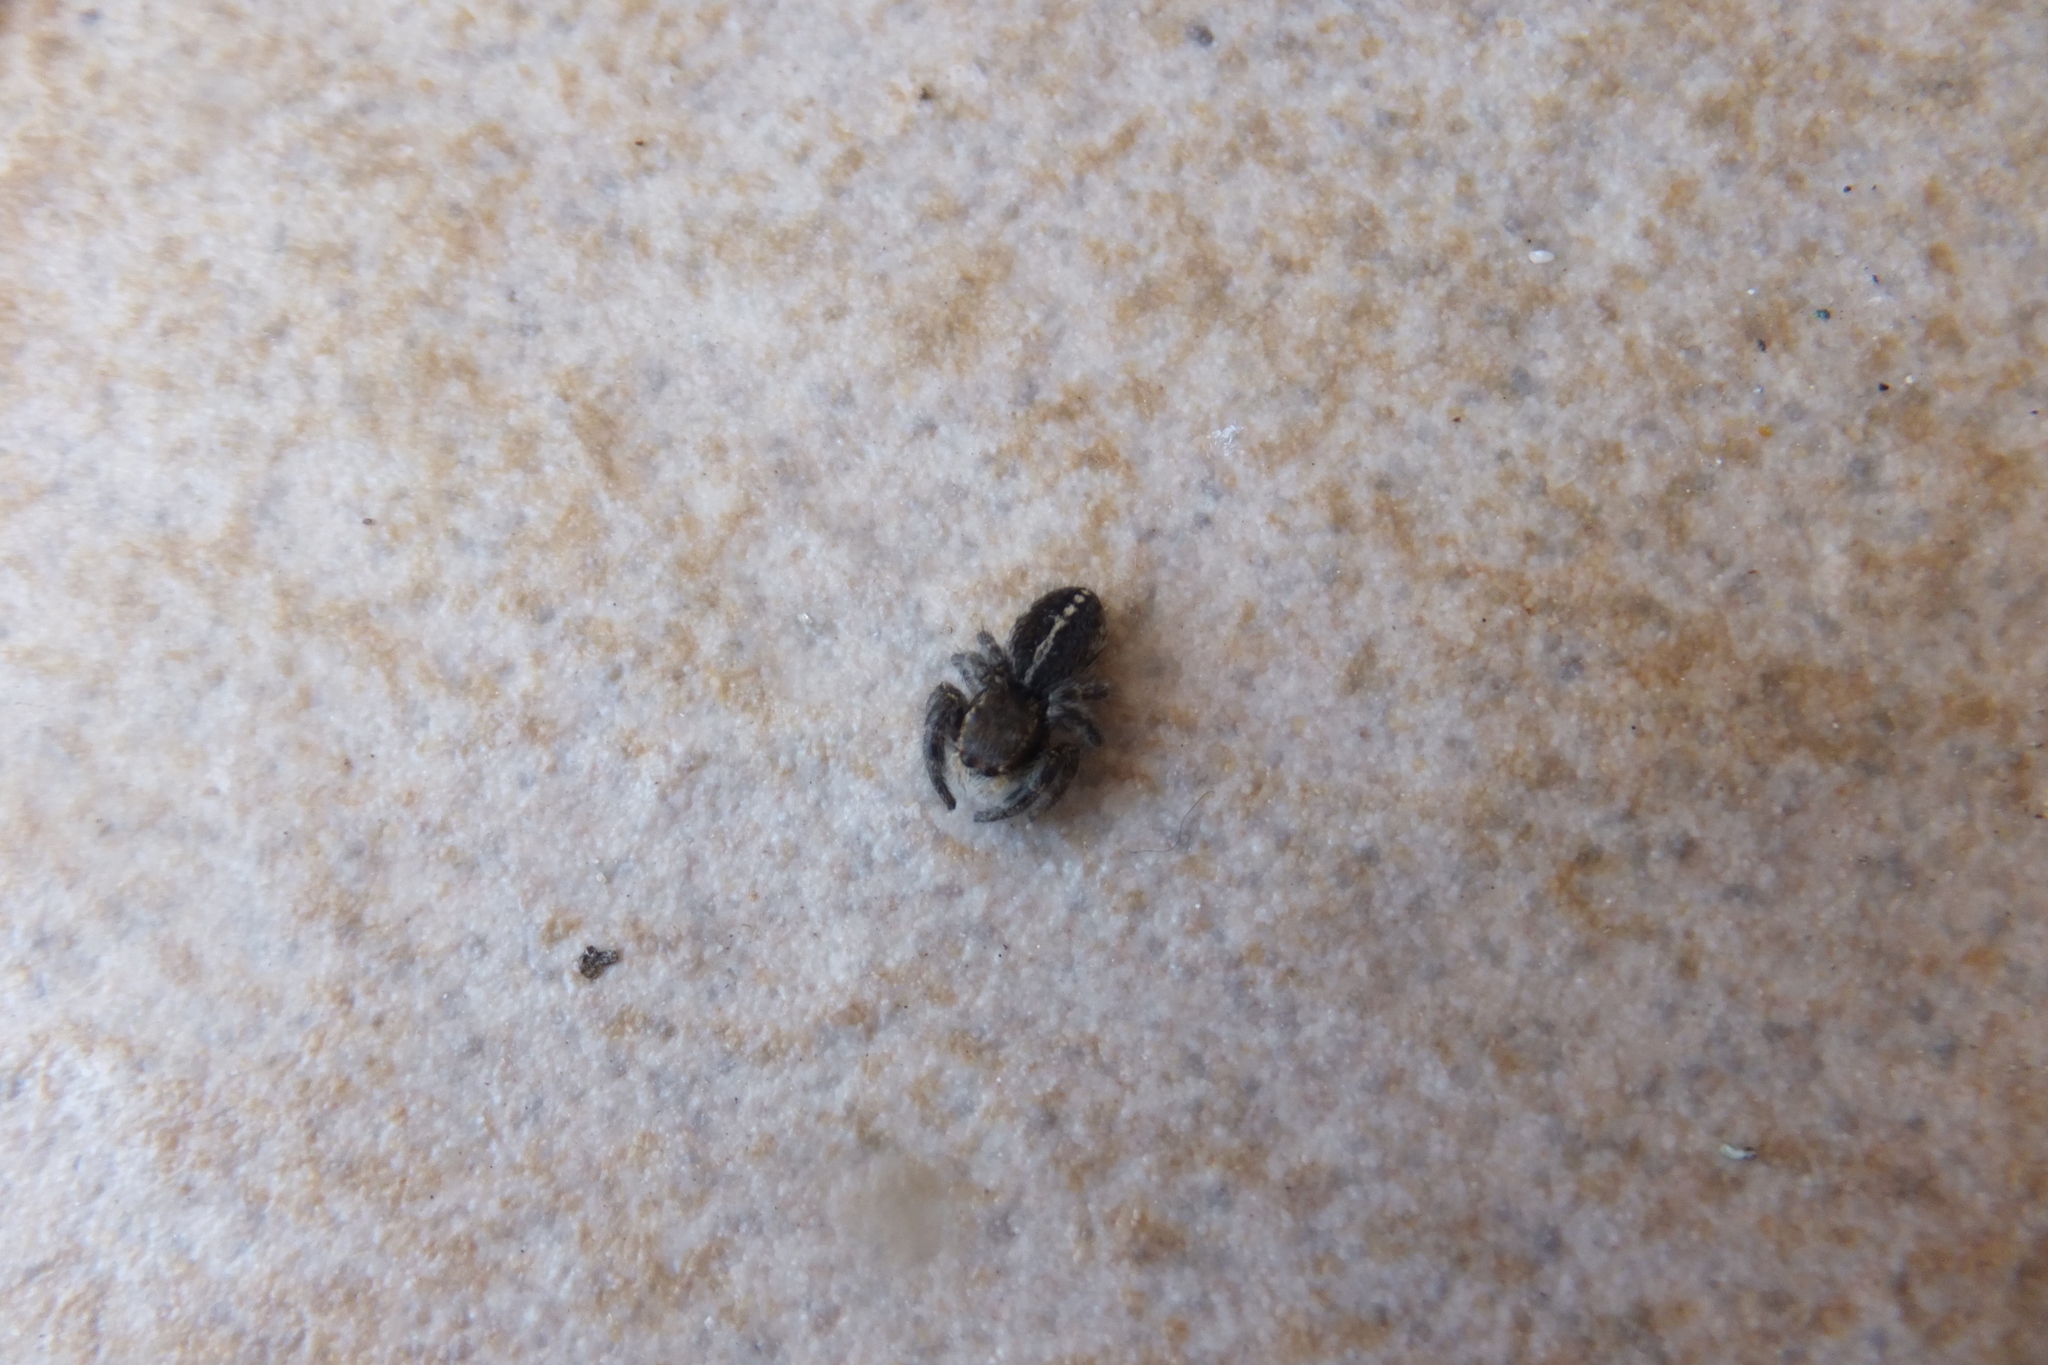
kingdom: Animalia
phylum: Arthropoda
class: Arachnida
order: Araneae
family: Salticidae
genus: Pellenes
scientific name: Pellenes seriatus
